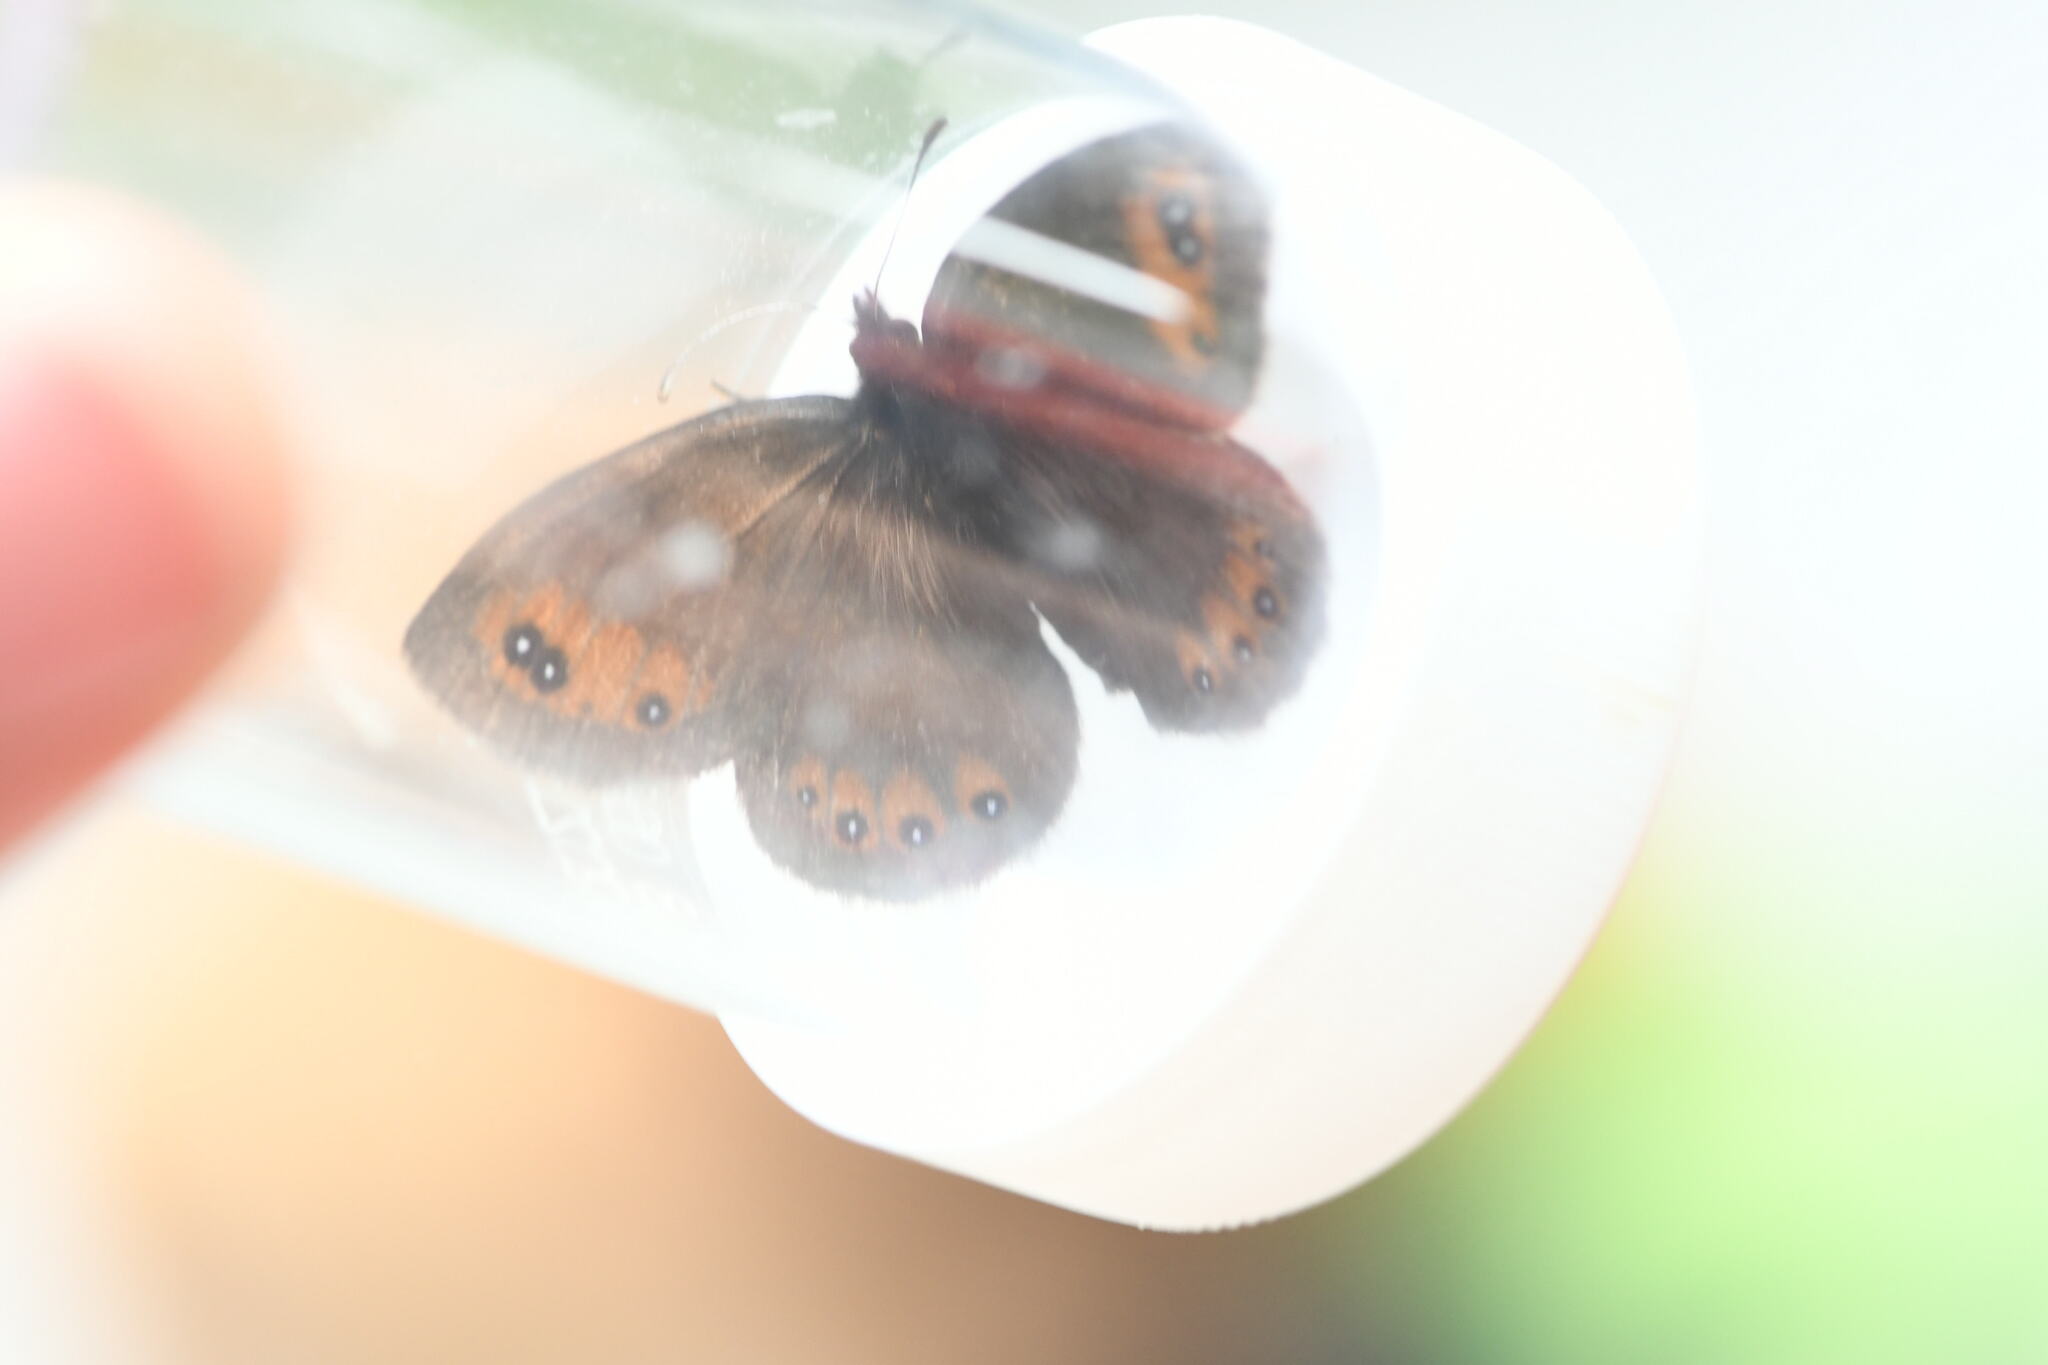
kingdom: Animalia
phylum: Arthropoda
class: Insecta
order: Lepidoptera
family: Nymphalidae
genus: Erebia
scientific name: Erebia meolans
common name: Piedmont ringlet
